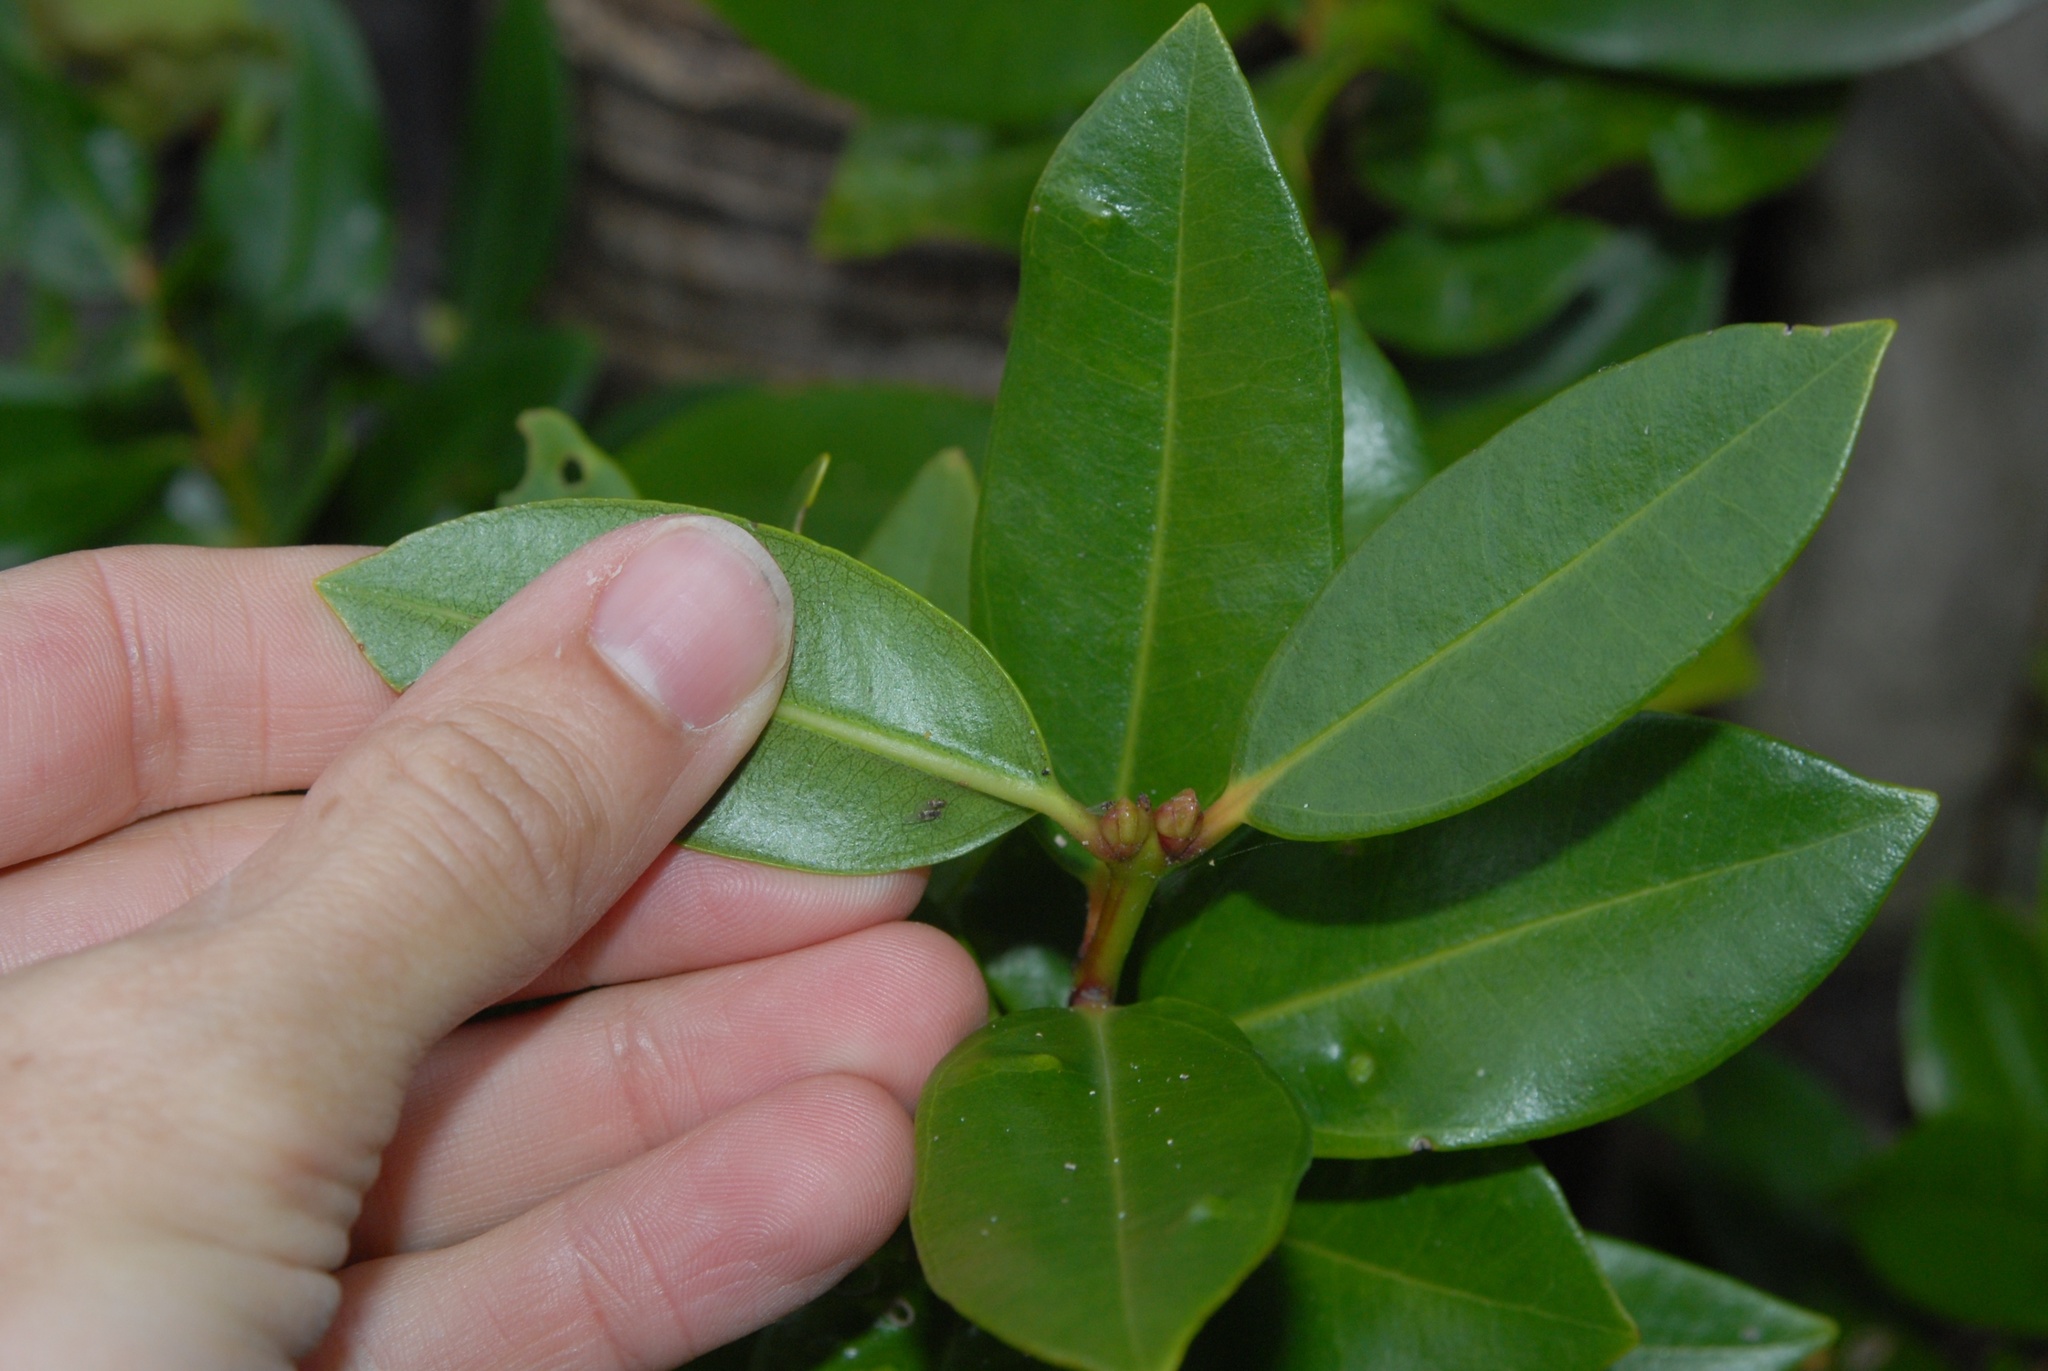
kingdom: Plantae
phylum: Tracheophyta
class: Magnoliopsida
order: Myrtales
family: Myrtaceae
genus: Metrosideros
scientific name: Metrosideros excelsa
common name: New zealand christmastree
